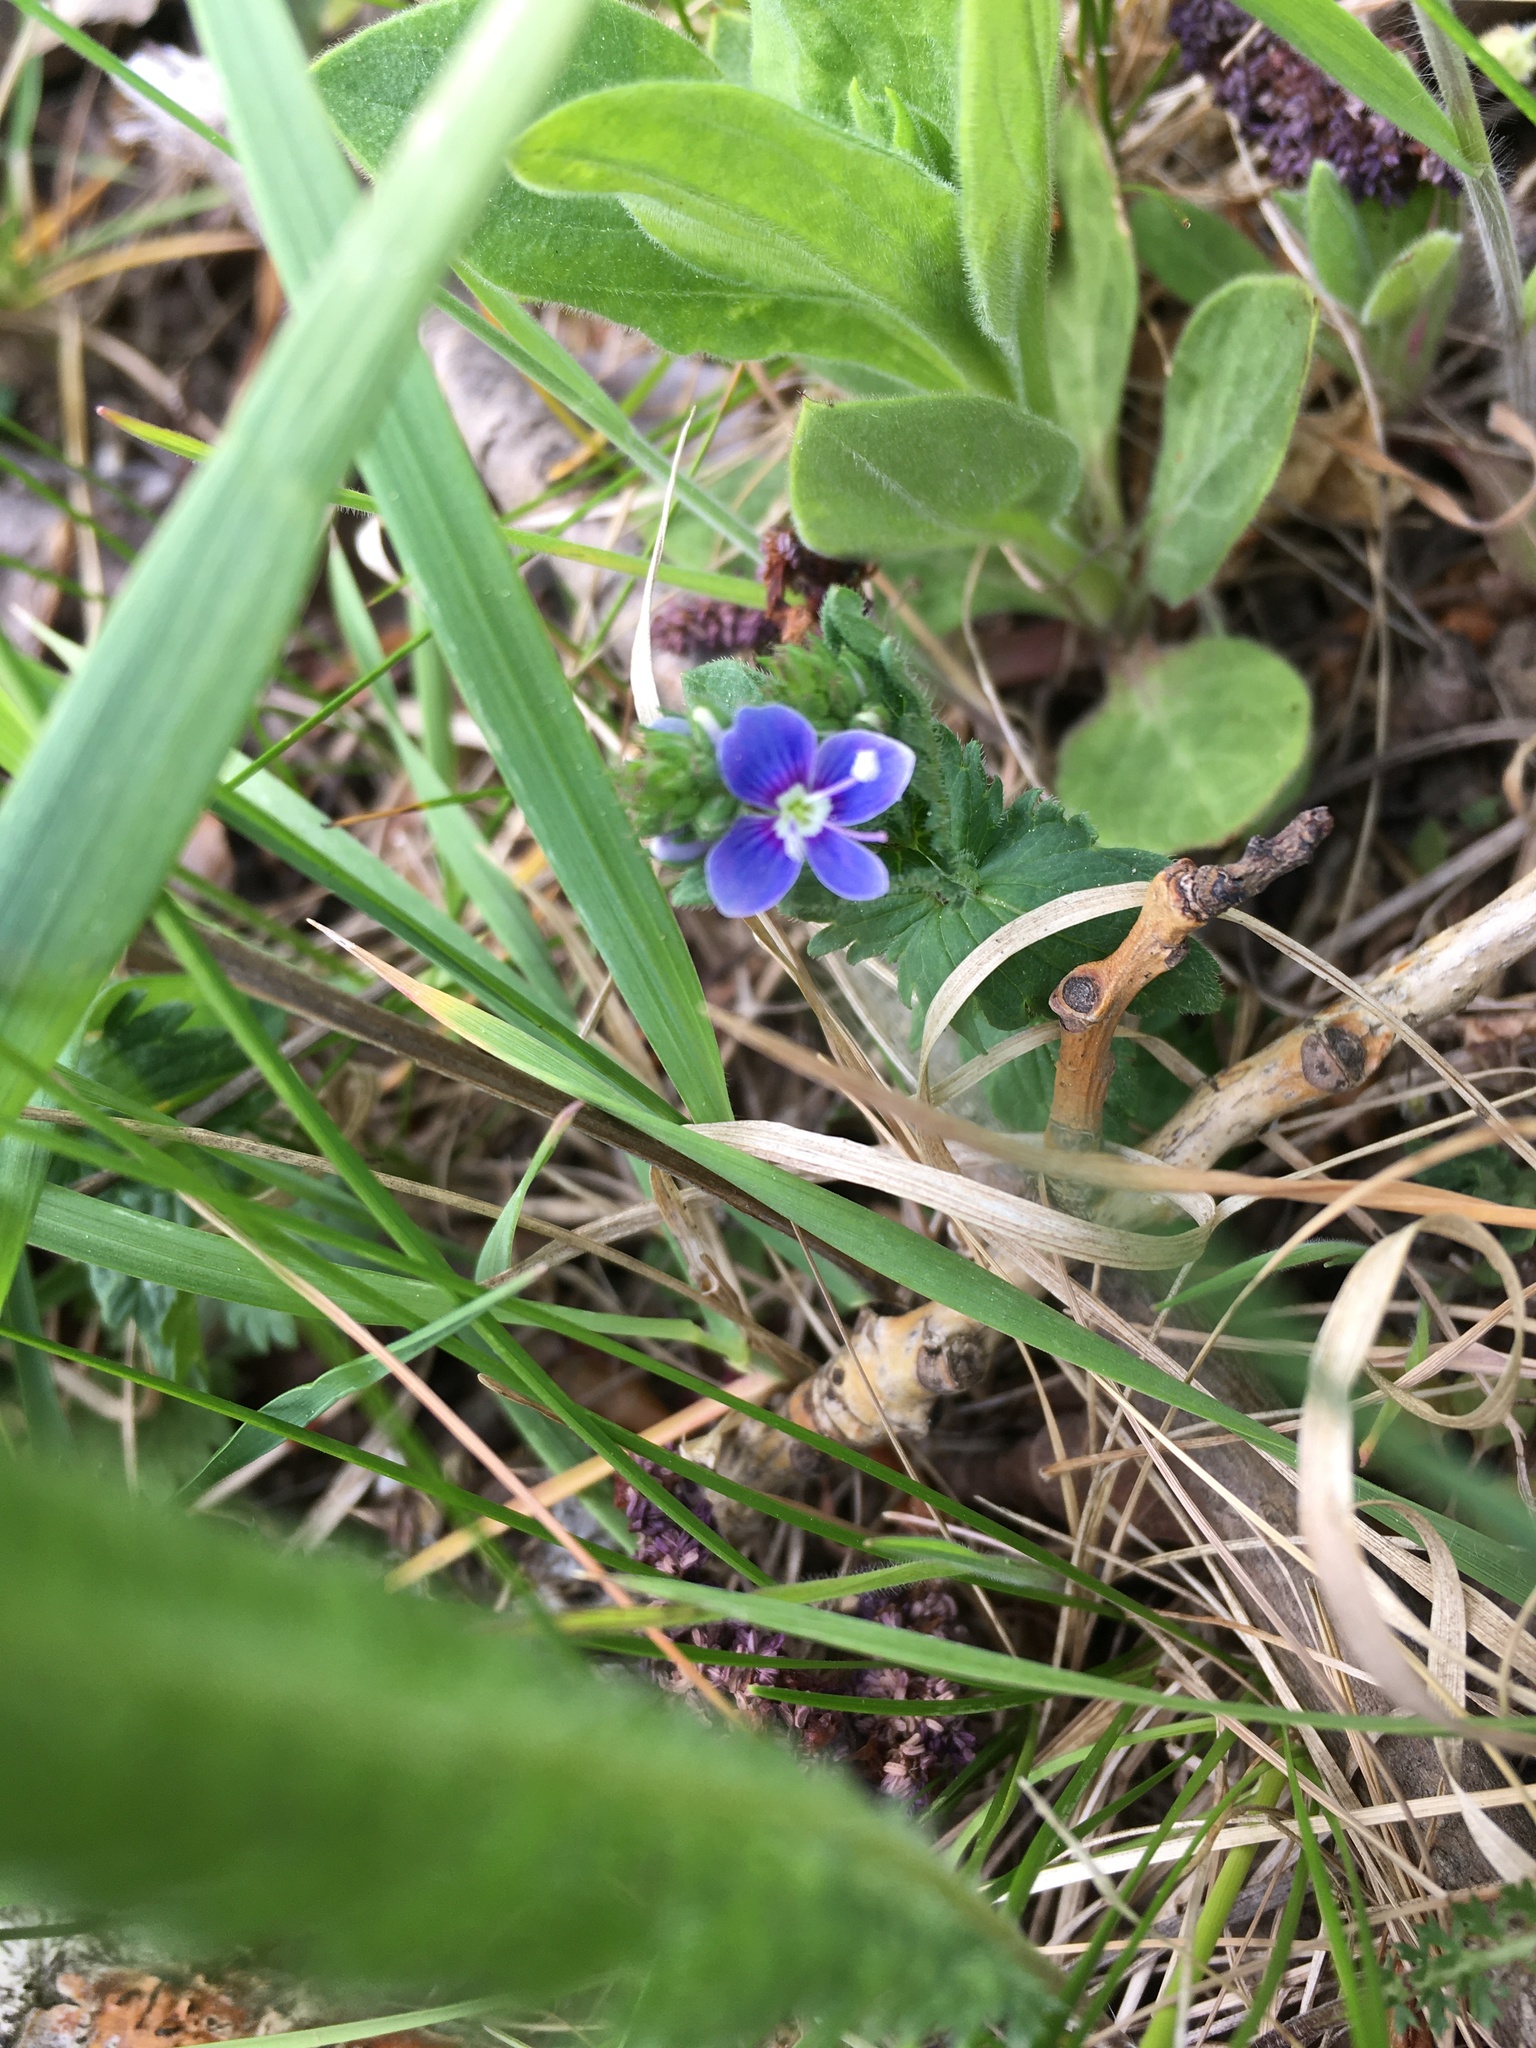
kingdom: Plantae
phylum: Tracheophyta
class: Magnoliopsida
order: Lamiales
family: Plantaginaceae
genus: Veronica
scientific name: Veronica chamaedrys
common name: Germander speedwell
